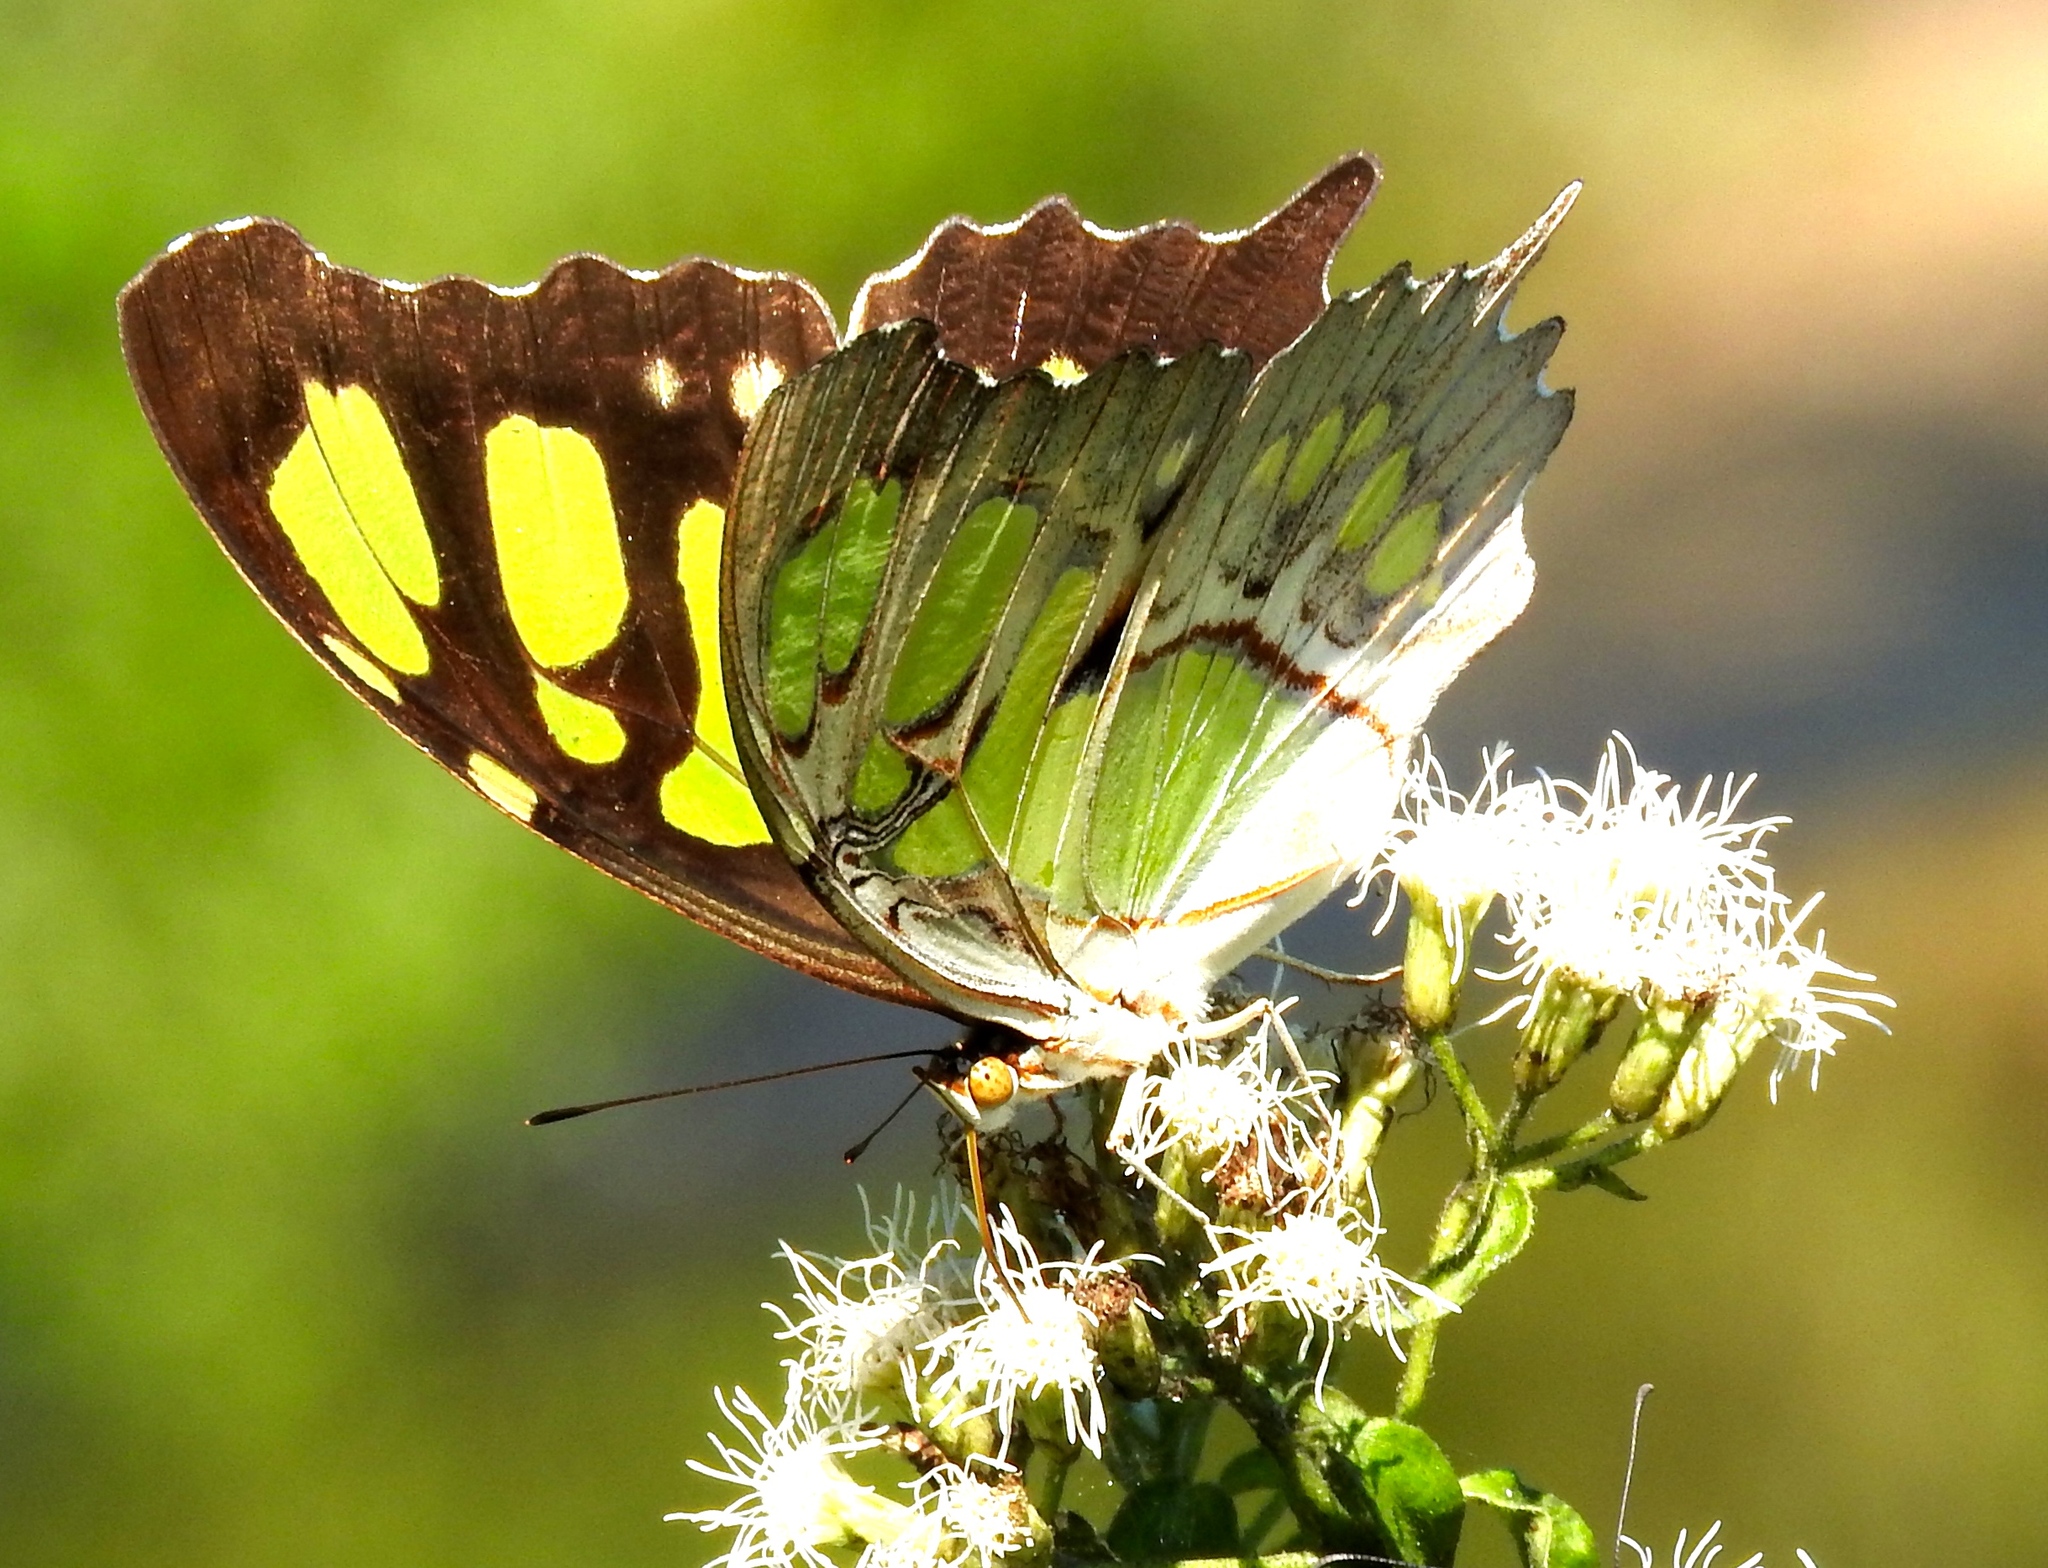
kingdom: Animalia
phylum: Arthropoda
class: Insecta
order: Lepidoptera
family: Nymphalidae
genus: Siproeta
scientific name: Siproeta stelenes
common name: Malachite
